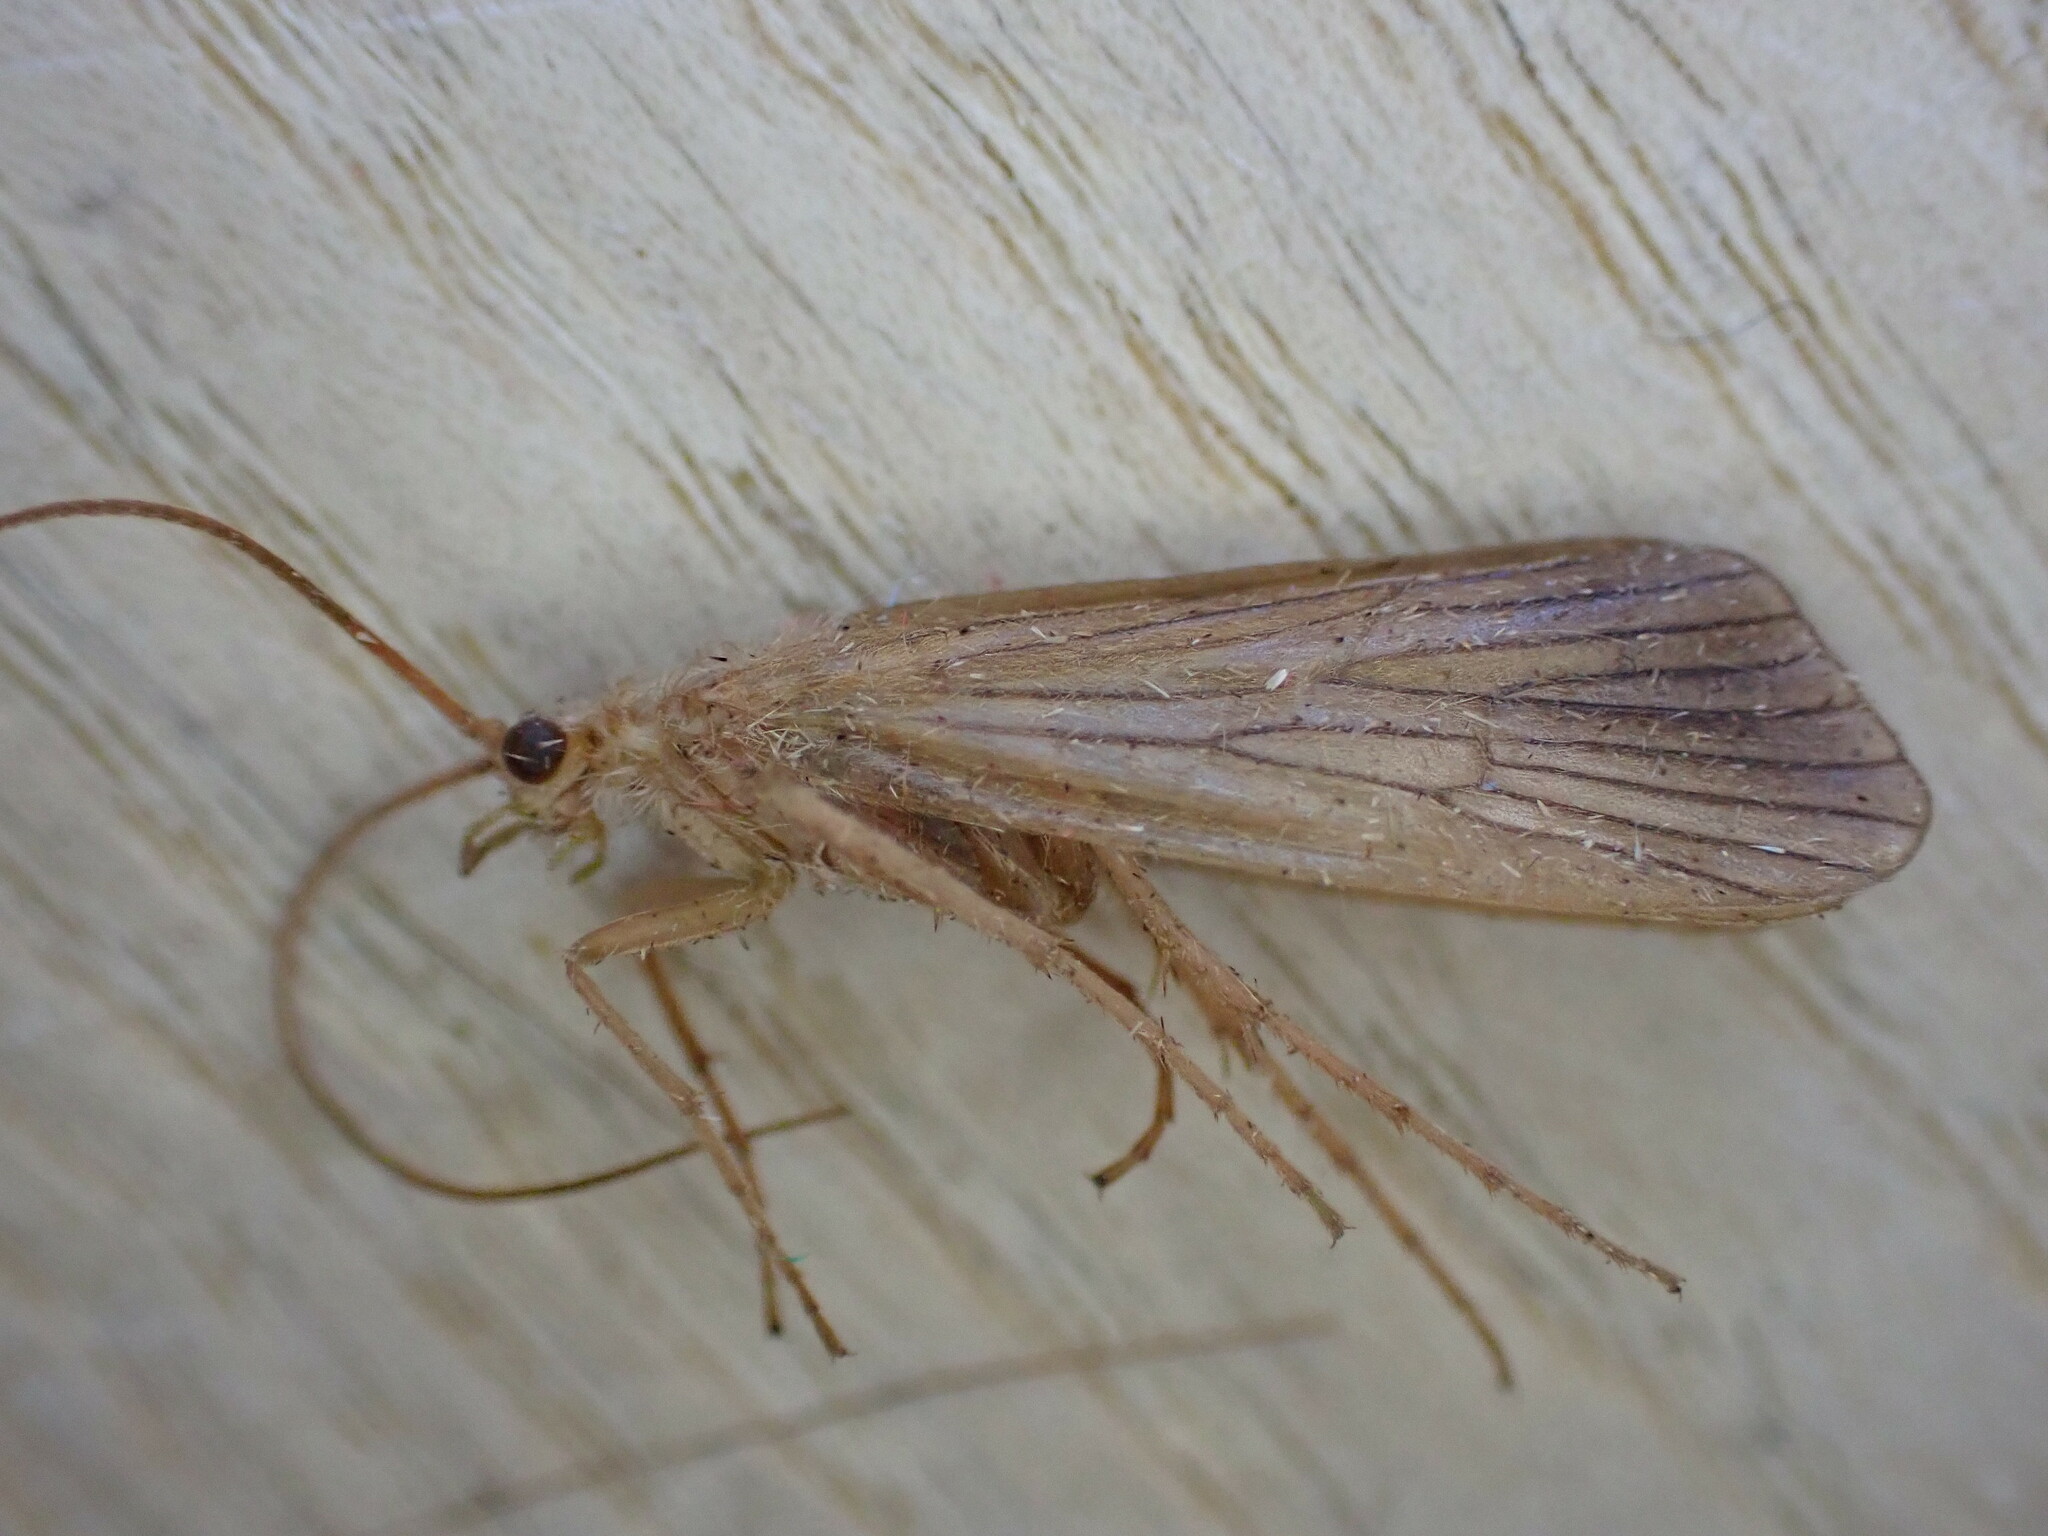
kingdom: Animalia
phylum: Arthropoda
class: Insecta
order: Trichoptera
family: Phryganeidae
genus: Agrypnia
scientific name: Agrypnia pagetana
